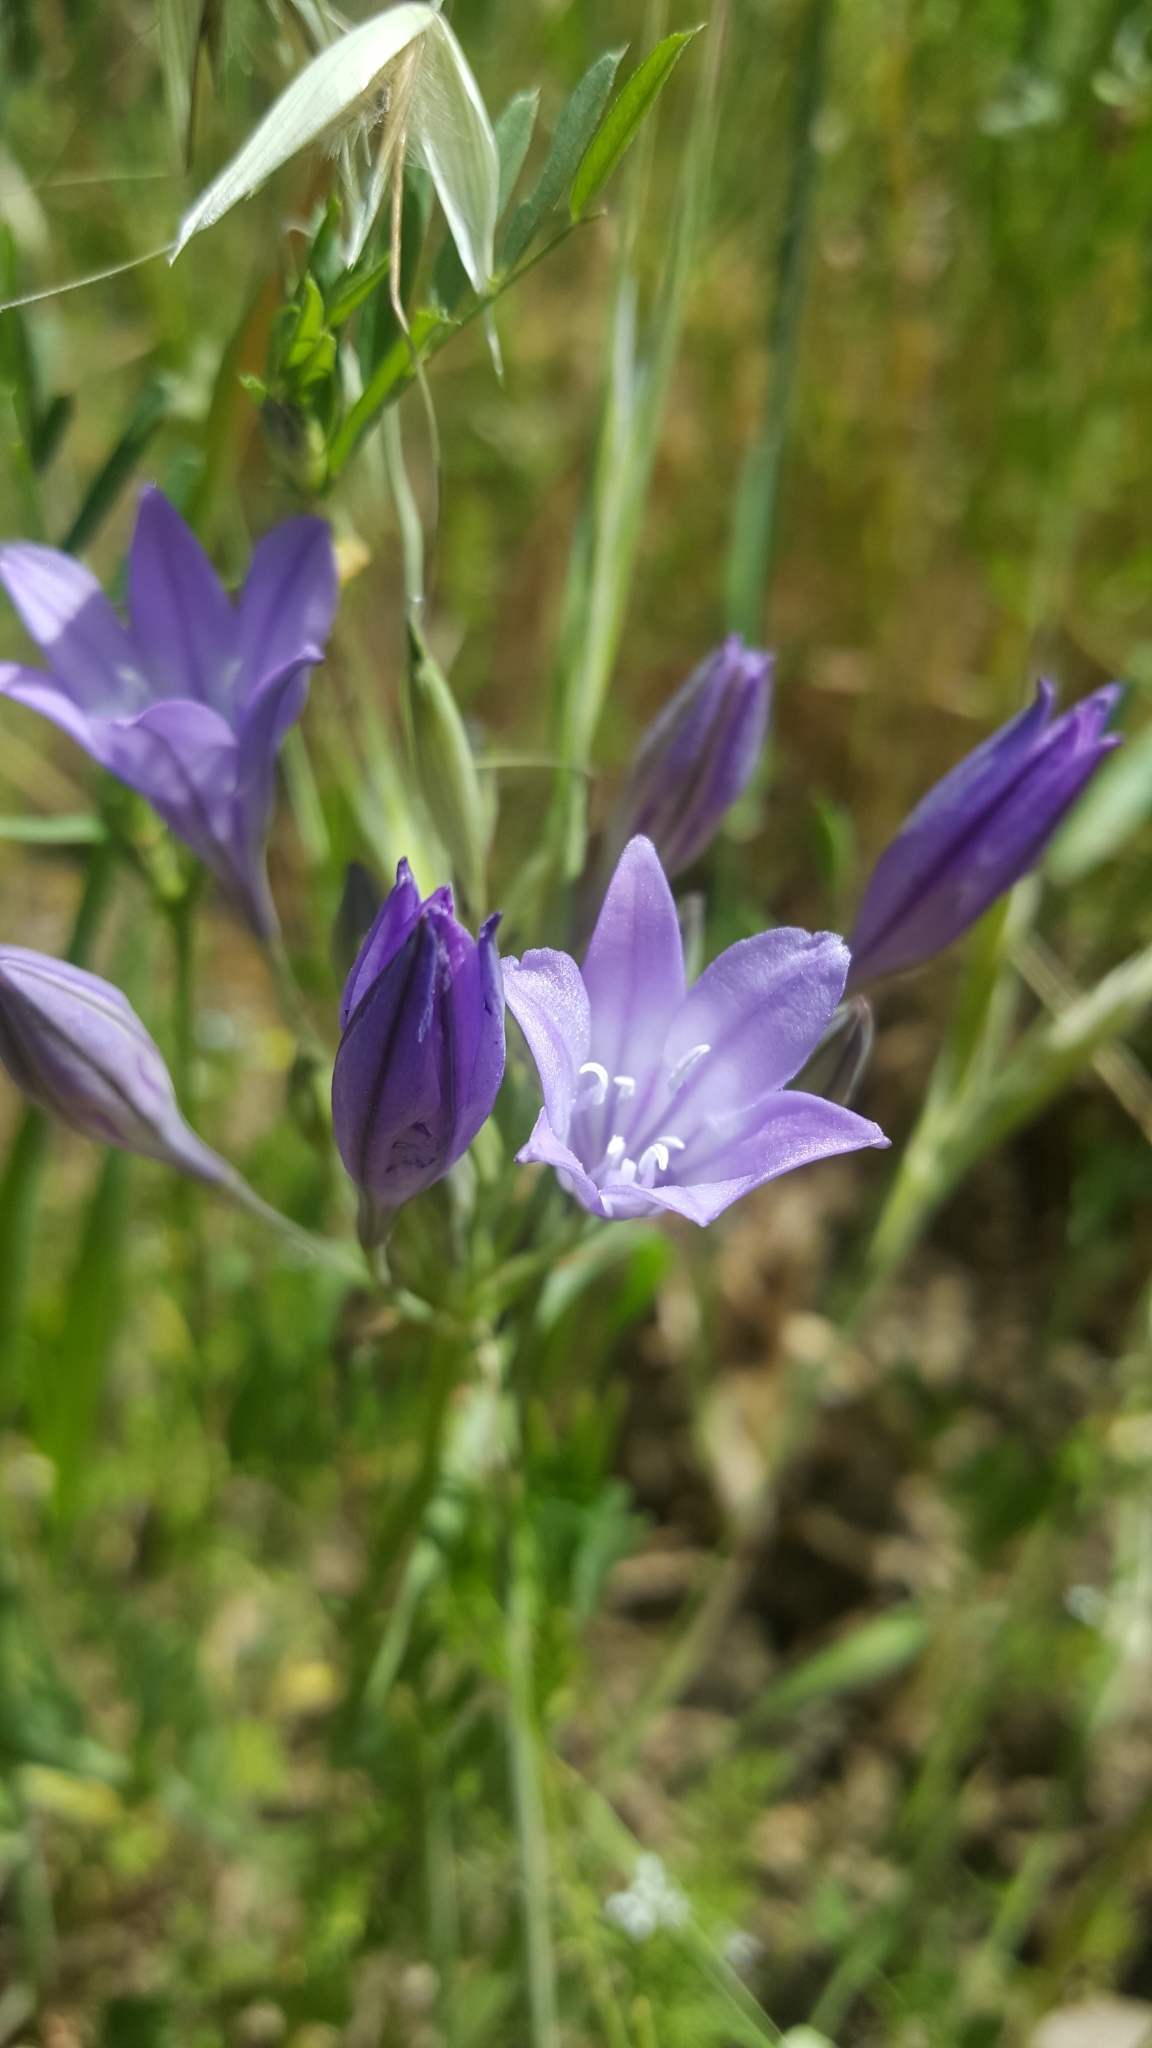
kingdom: Plantae
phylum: Tracheophyta
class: Liliopsida
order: Asparagales
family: Asparagaceae
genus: Triteleia
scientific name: Triteleia laxa
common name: Triplet-lily
